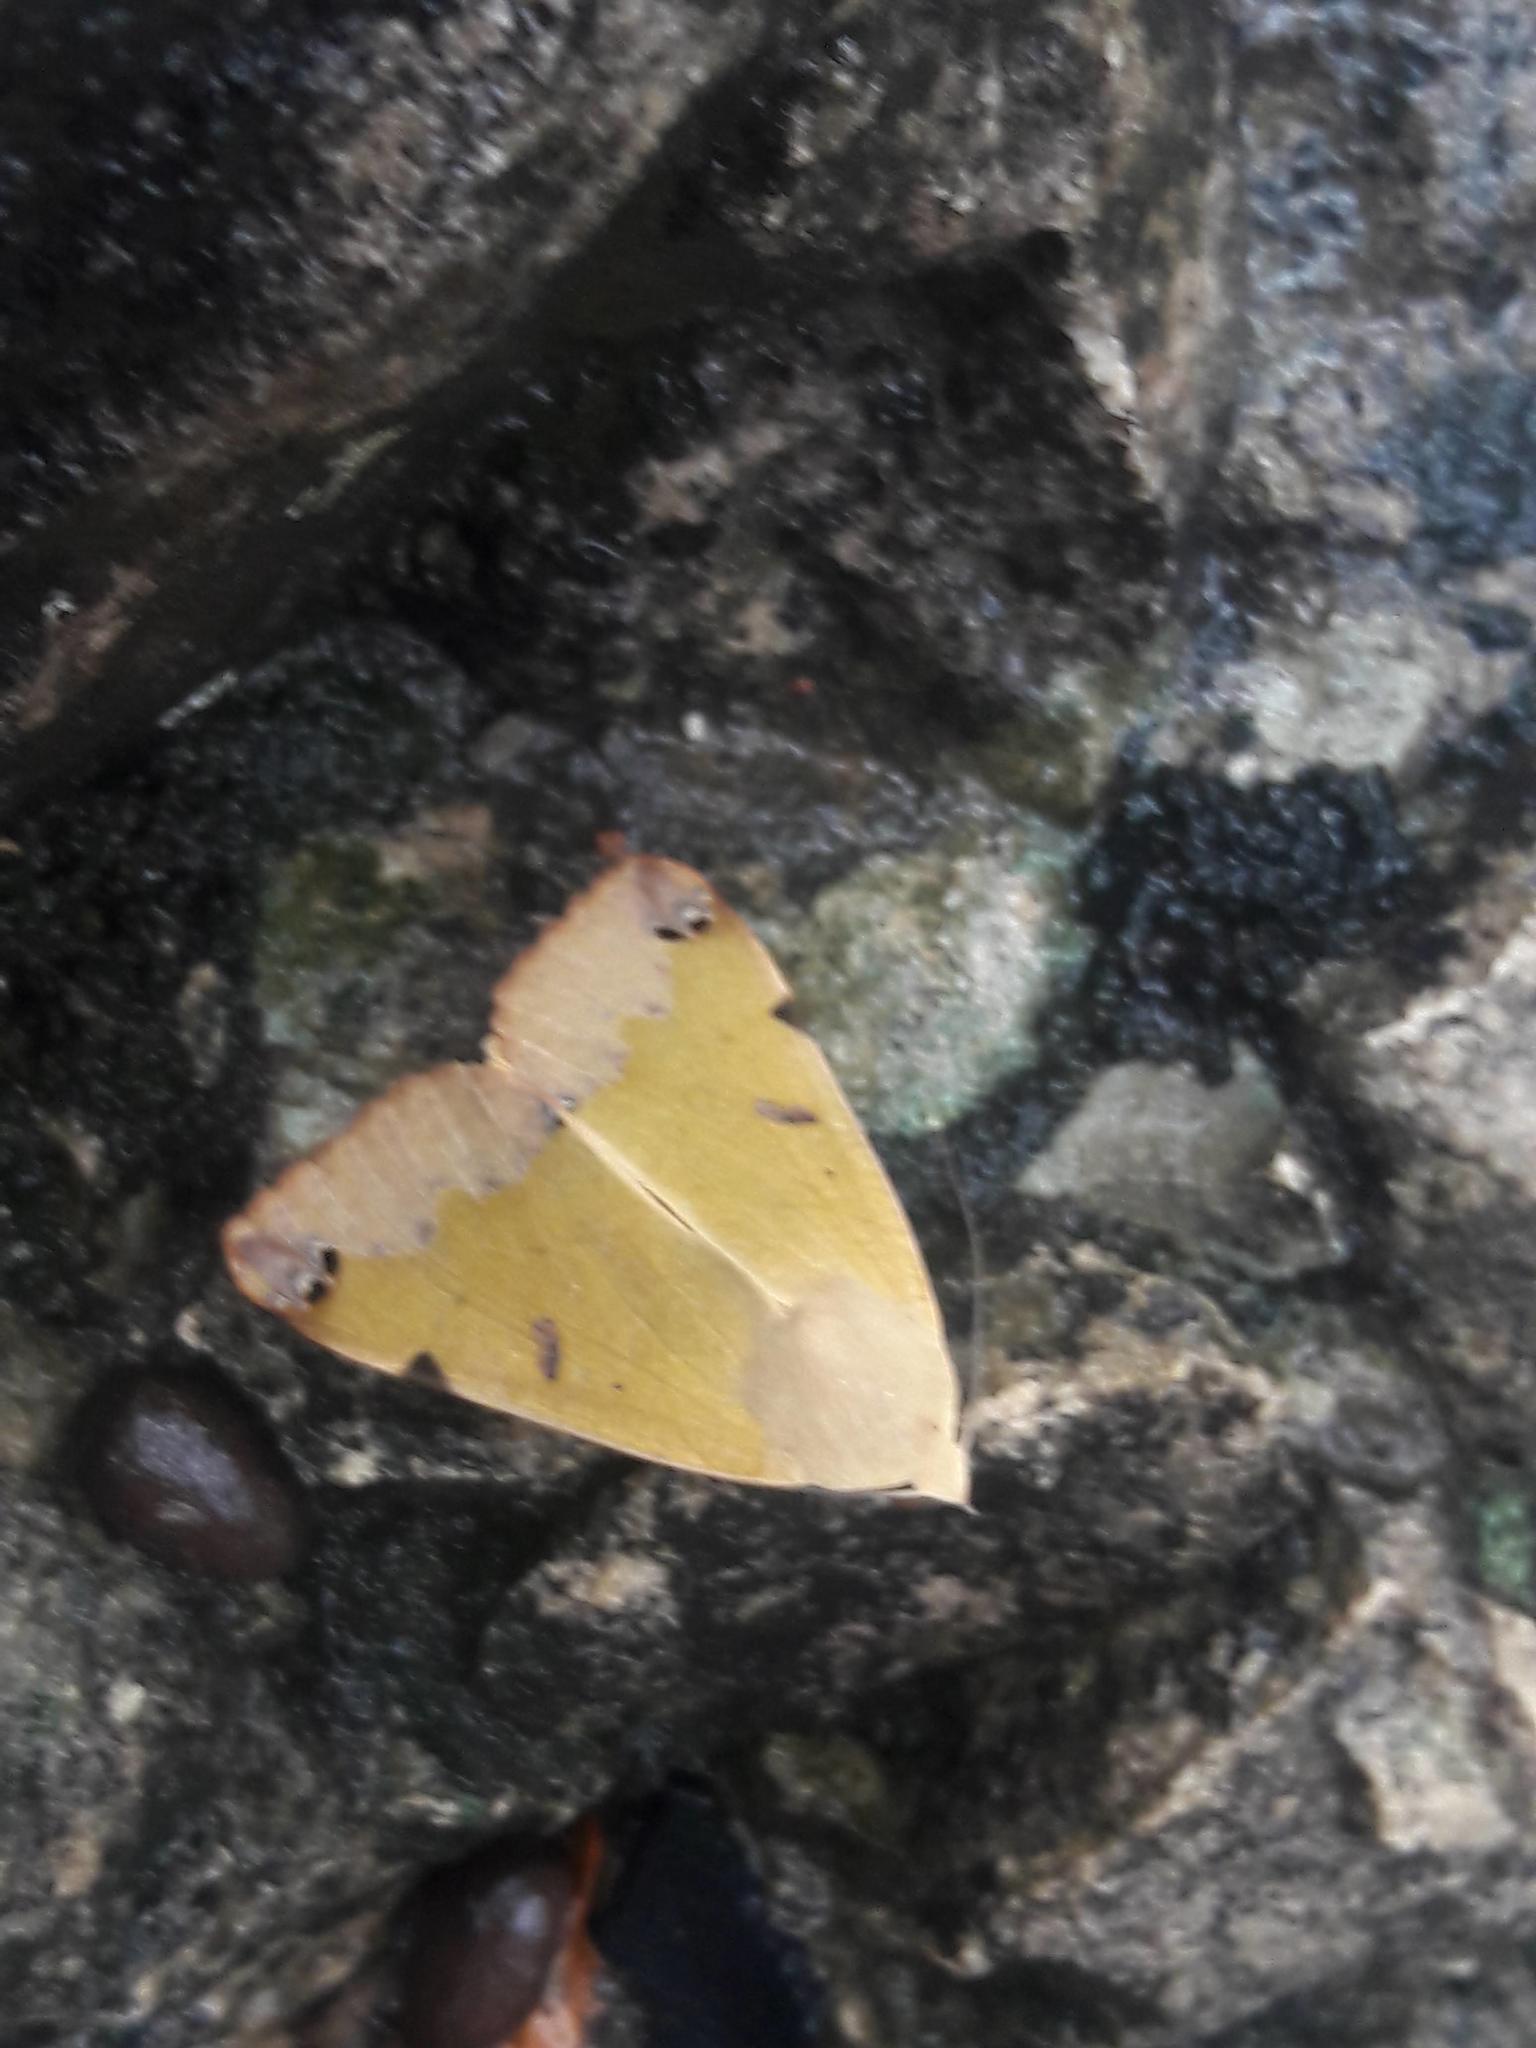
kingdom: Animalia
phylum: Arthropoda
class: Insecta
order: Lepidoptera
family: Erebidae
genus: Ophiusa
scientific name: Ophiusa tirhaca
